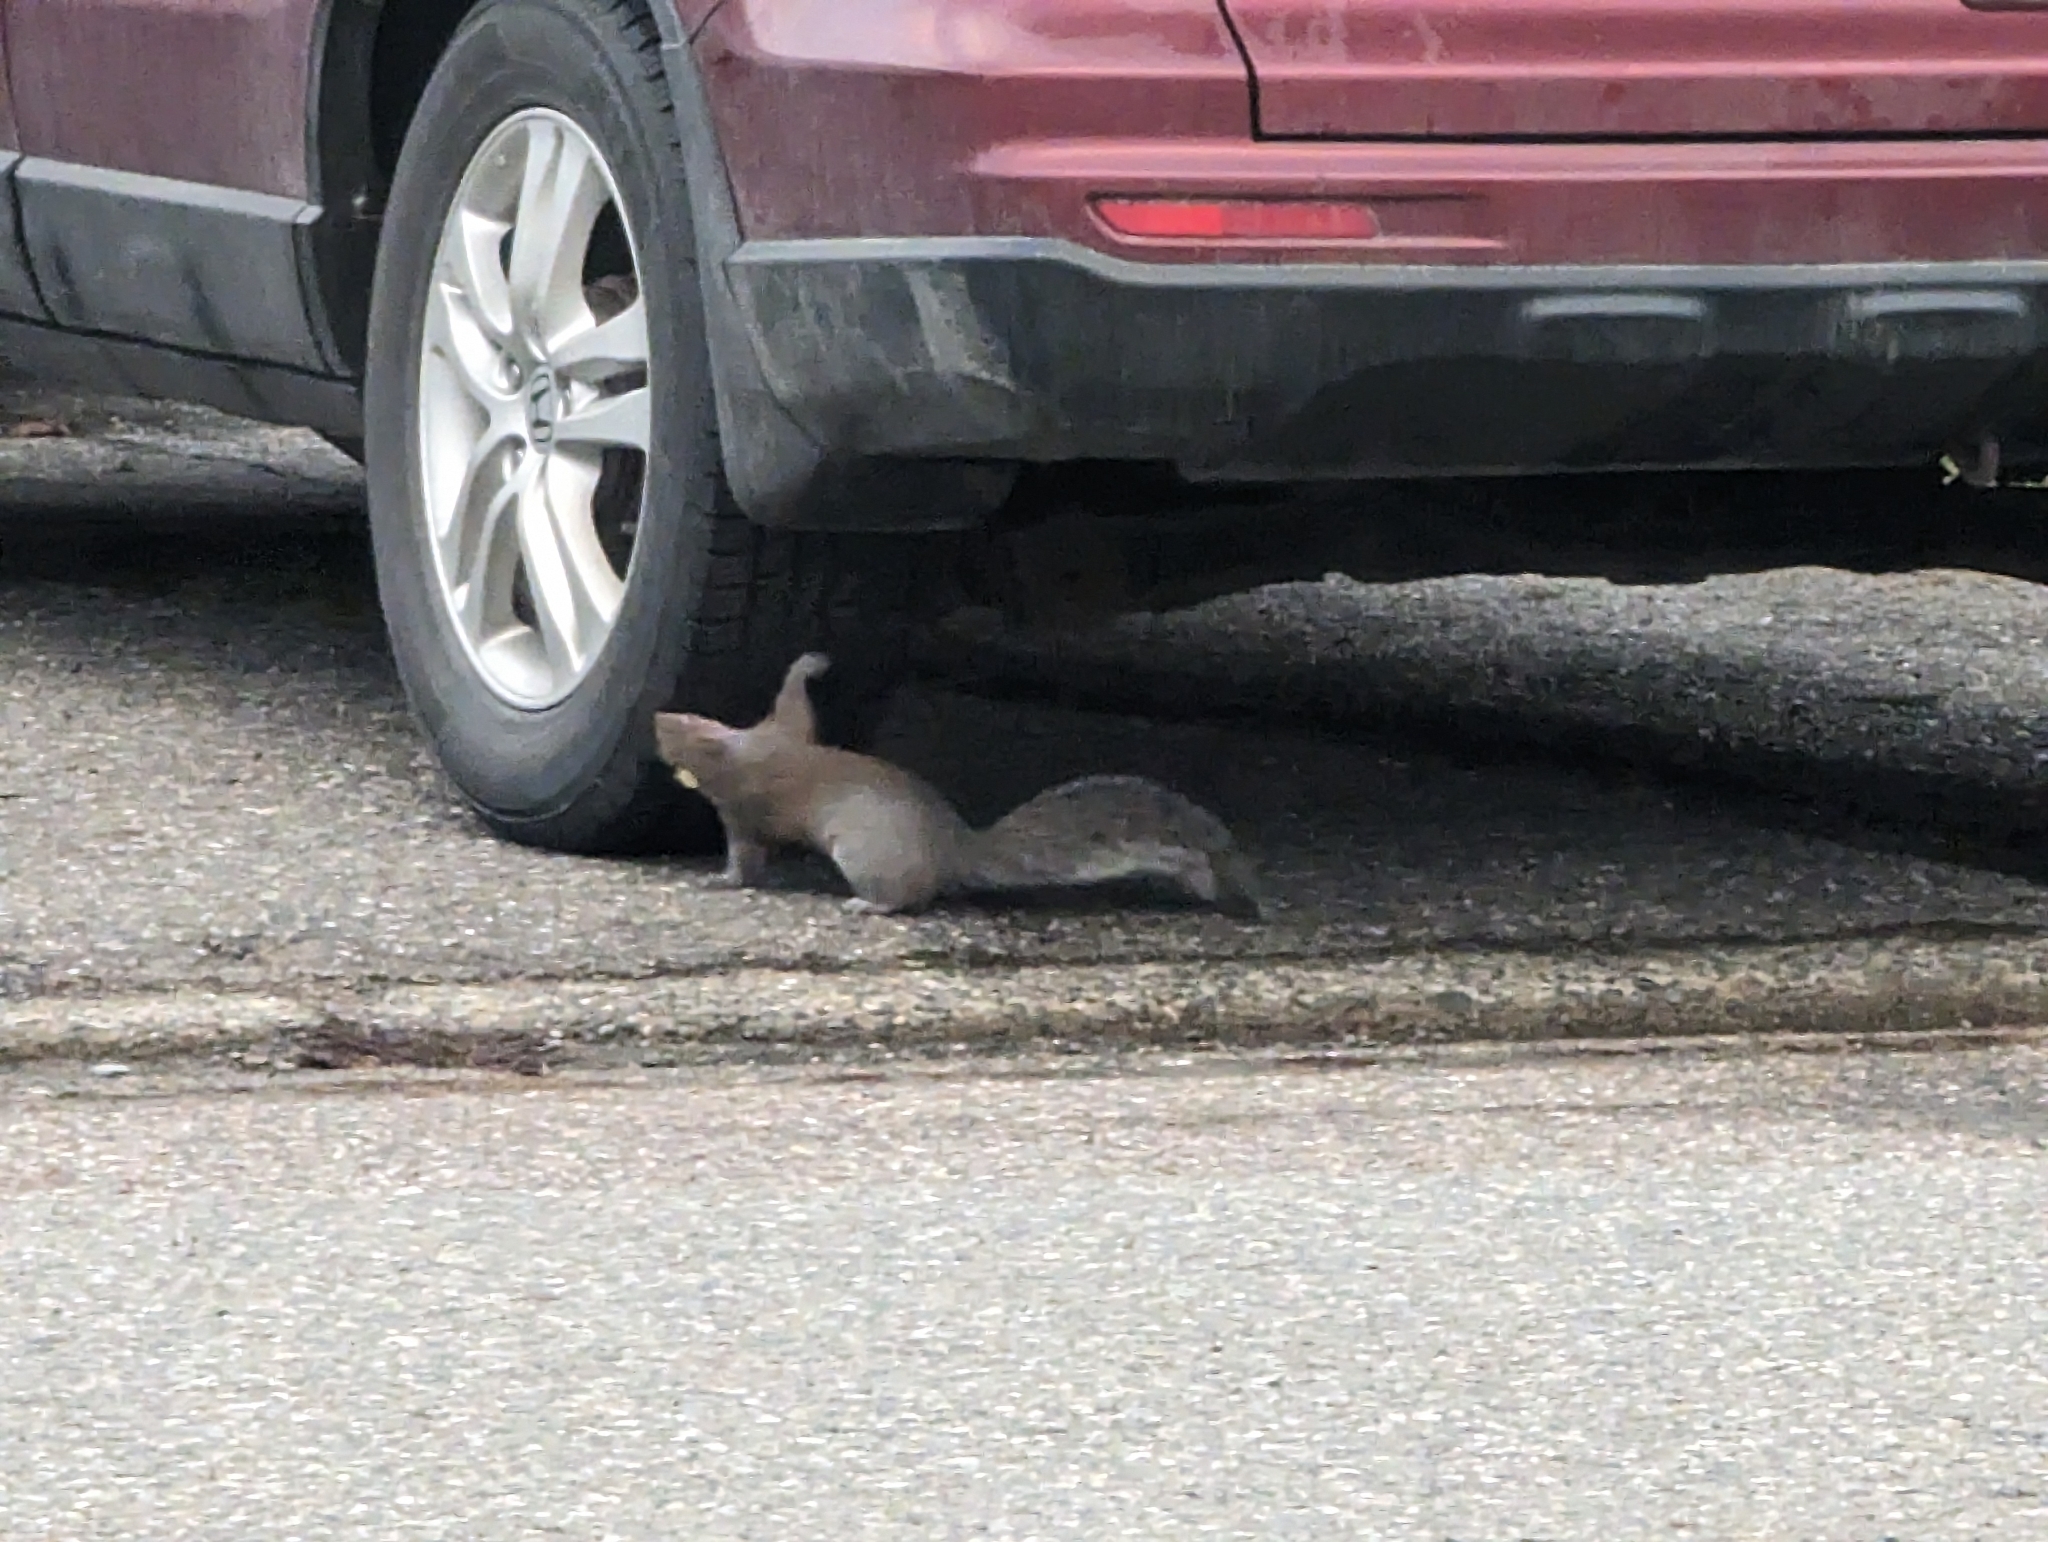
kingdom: Animalia
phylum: Chordata
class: Mammalia
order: Rodentia
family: Sciuridae
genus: Sciurus
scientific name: Sciurus carolinensis
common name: Eastern gray squirrel
